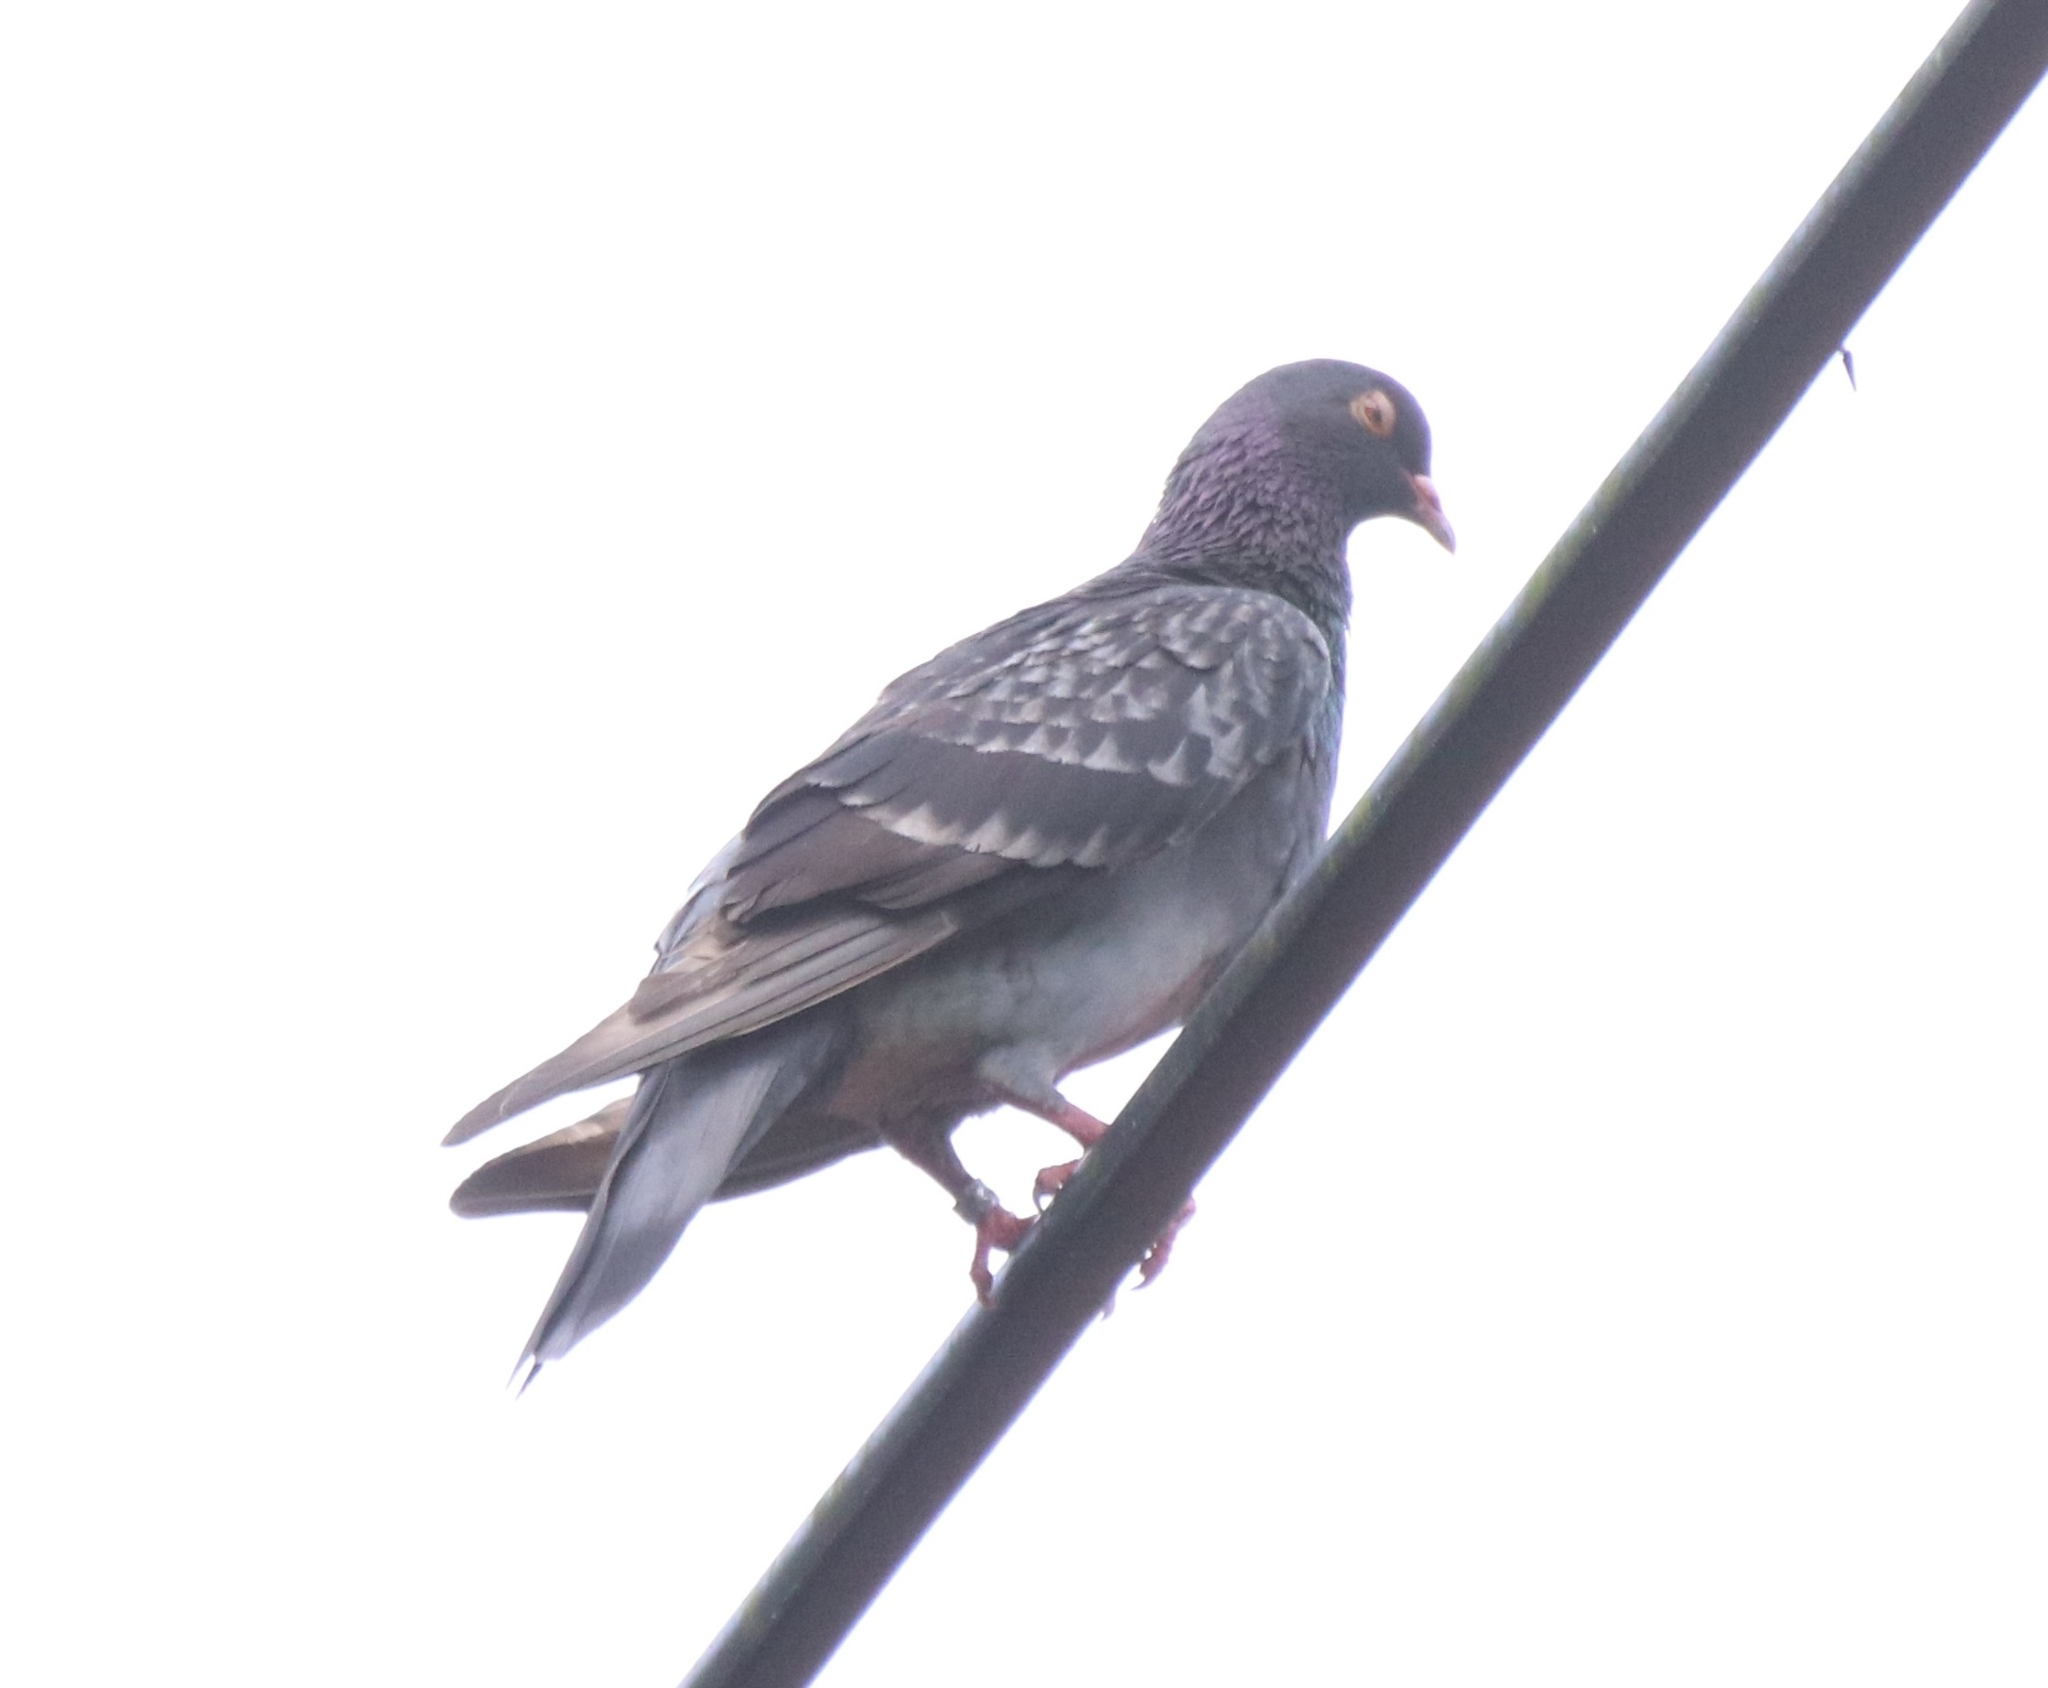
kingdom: Animalia
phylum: Chordata
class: Aves
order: Columbiformes
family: Columbidae
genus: Columba
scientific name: Columba livia
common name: Rock pigeon
